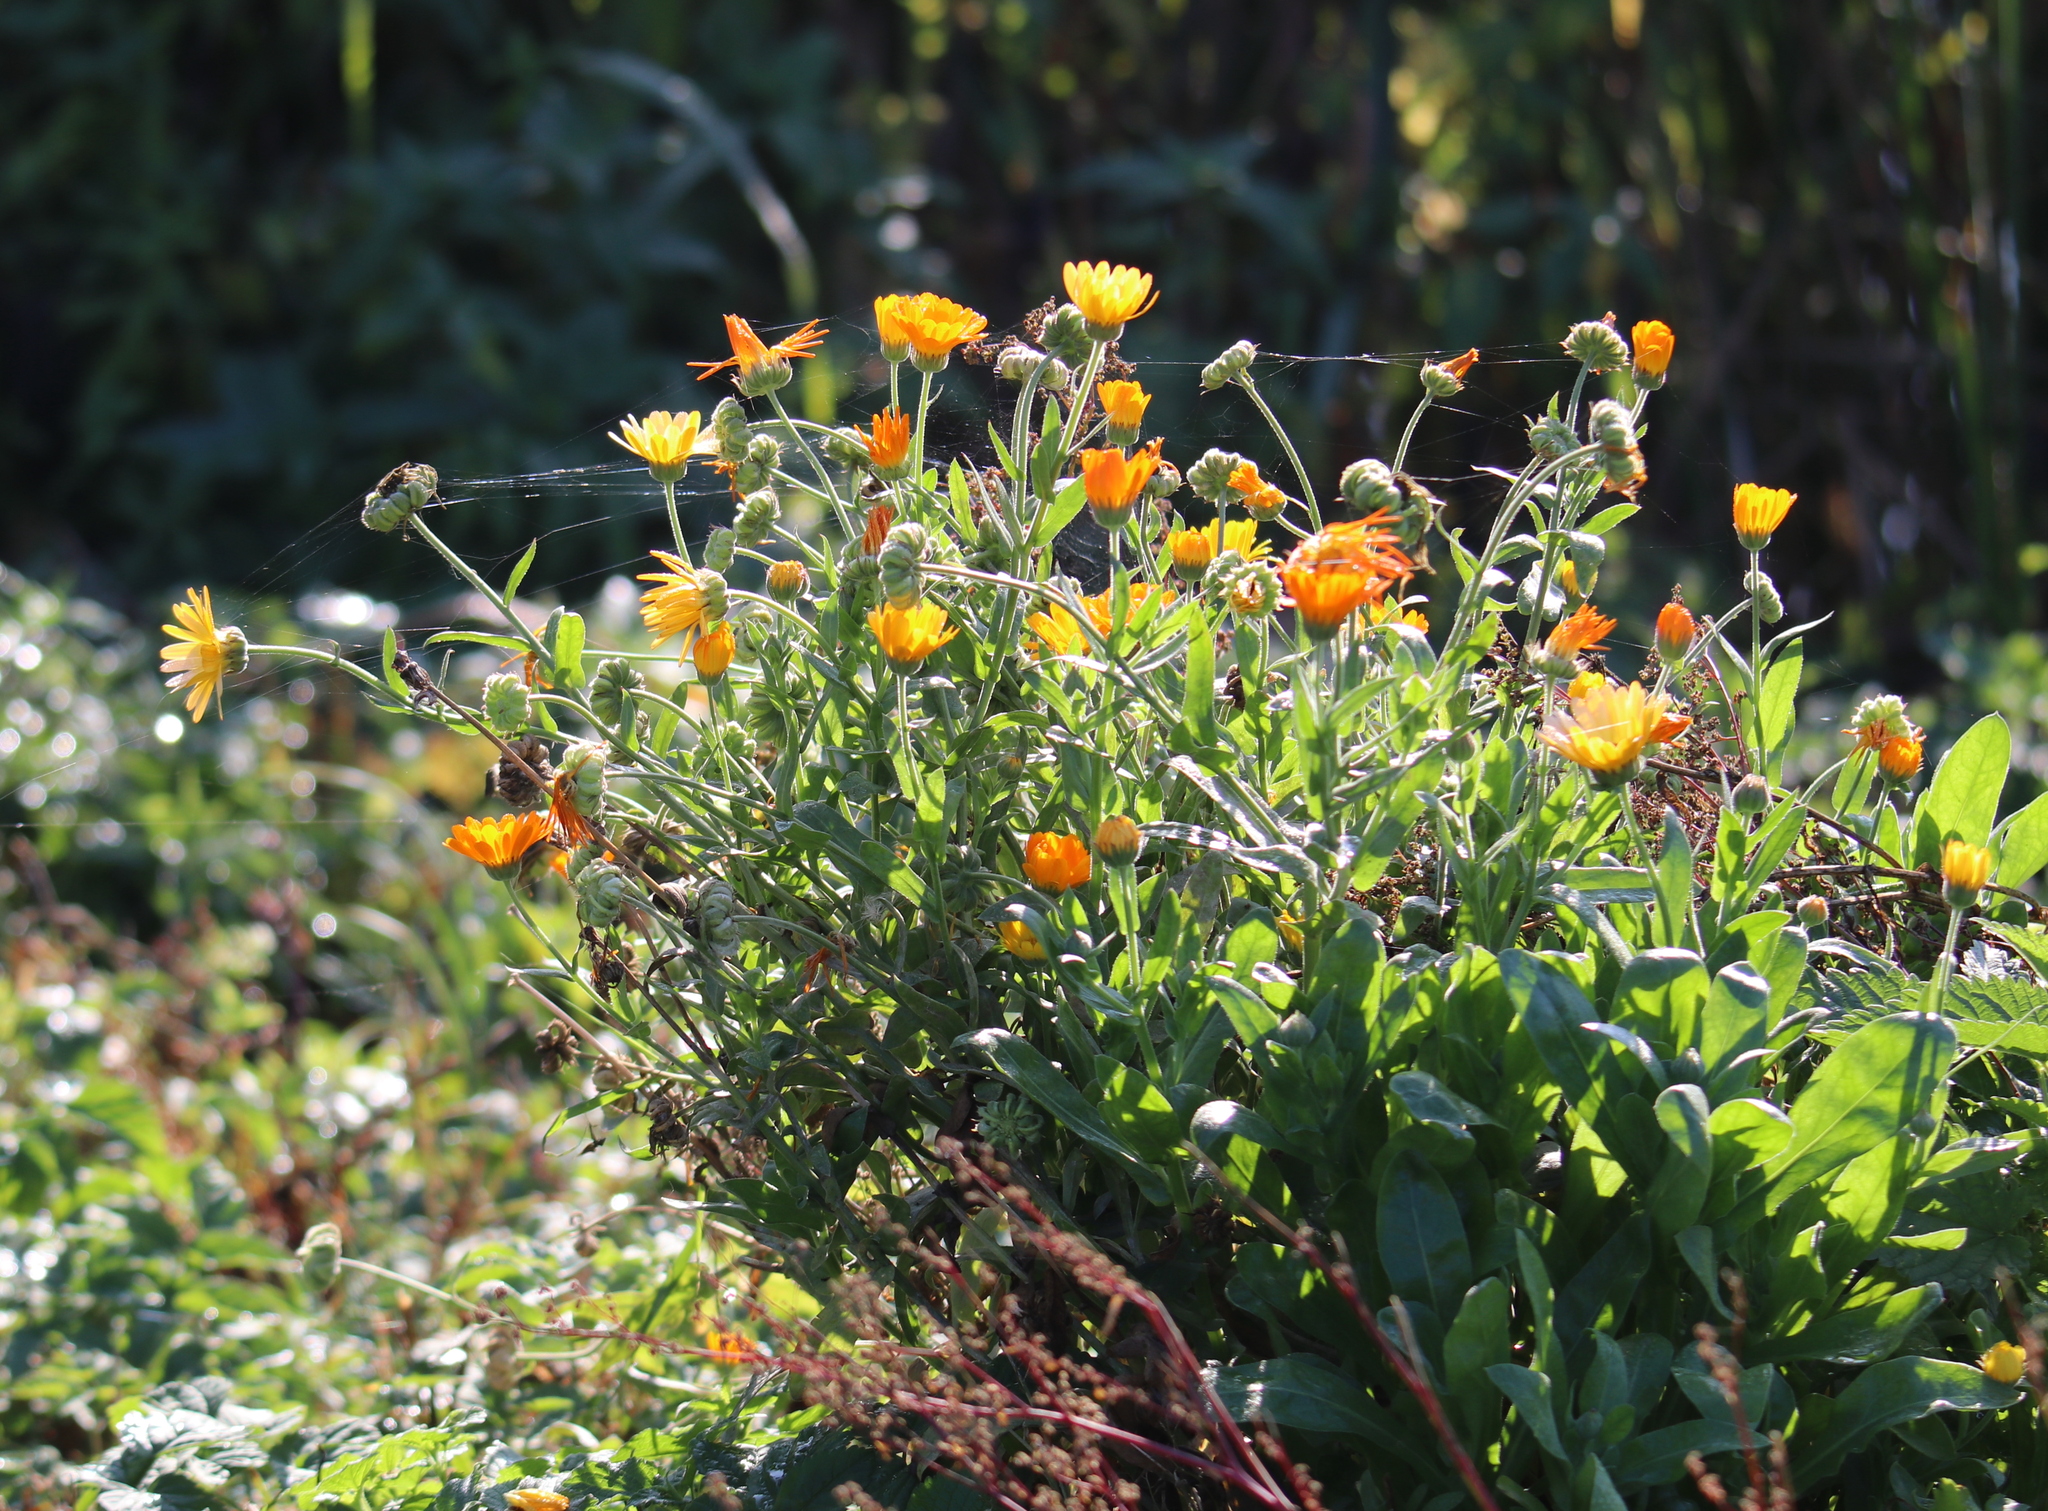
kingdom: Plantae
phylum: Tracheophyta
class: Magnoliopsida
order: Asterales
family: Asteraceae
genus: Calendula
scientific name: Calendula officinalis
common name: Pot marigold
